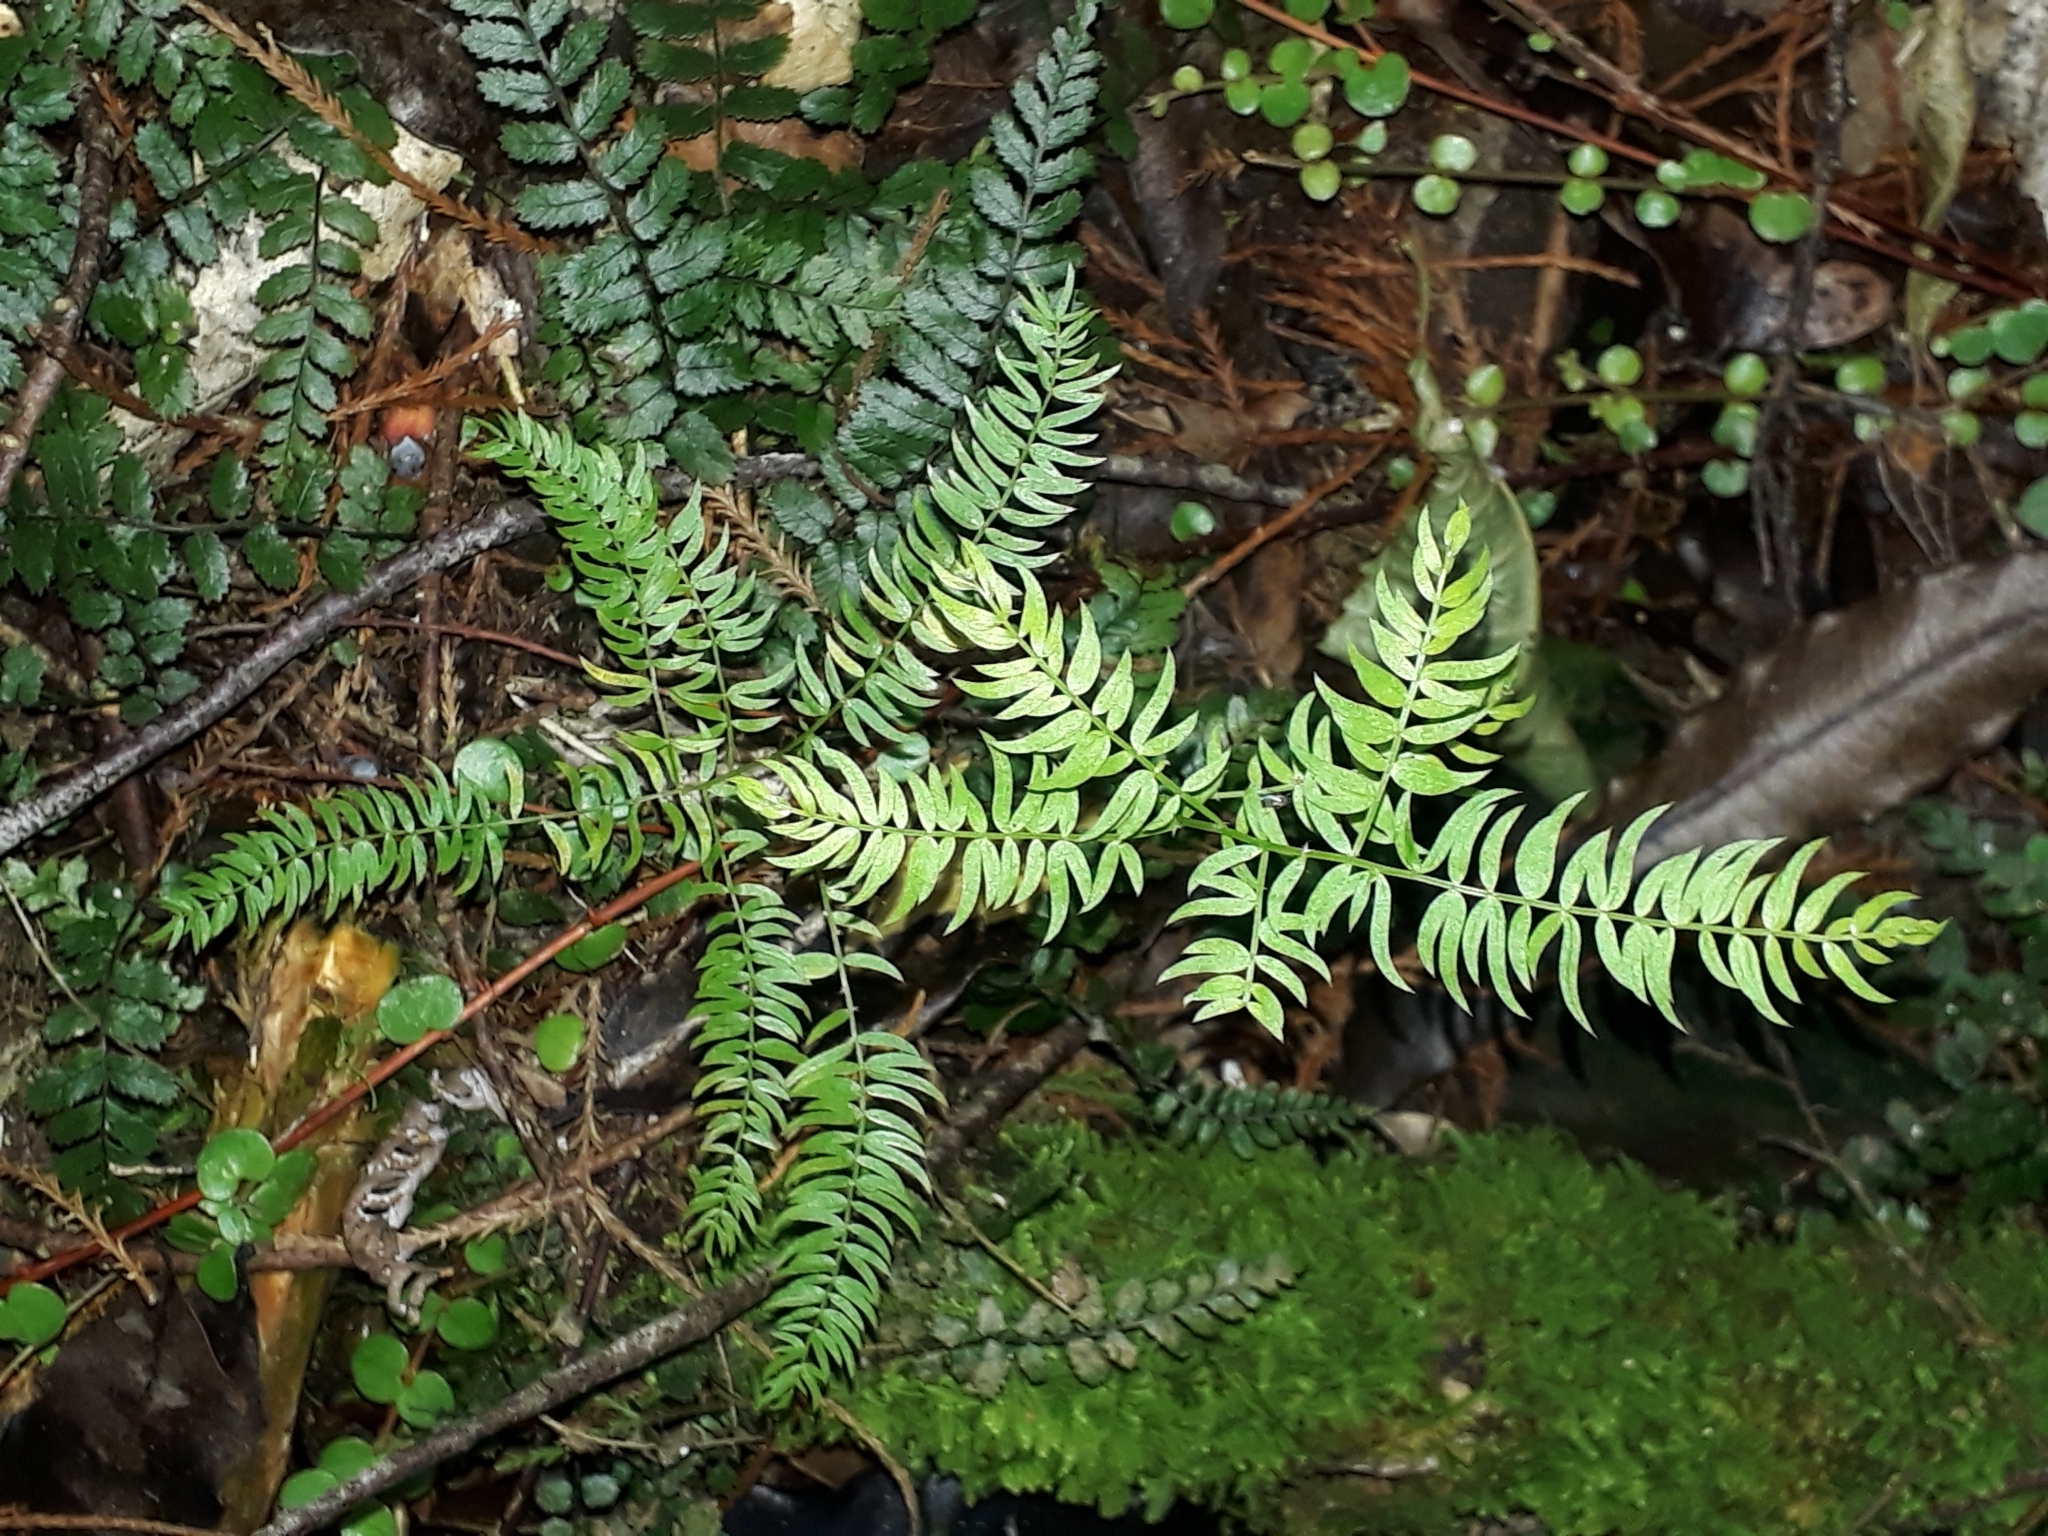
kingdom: Plantae
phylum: Tracheophyta
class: Liliopsida
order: Asparagales
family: Asparagaceae
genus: Asparagus
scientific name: Asparagus scandens
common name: Asparagus-fern
